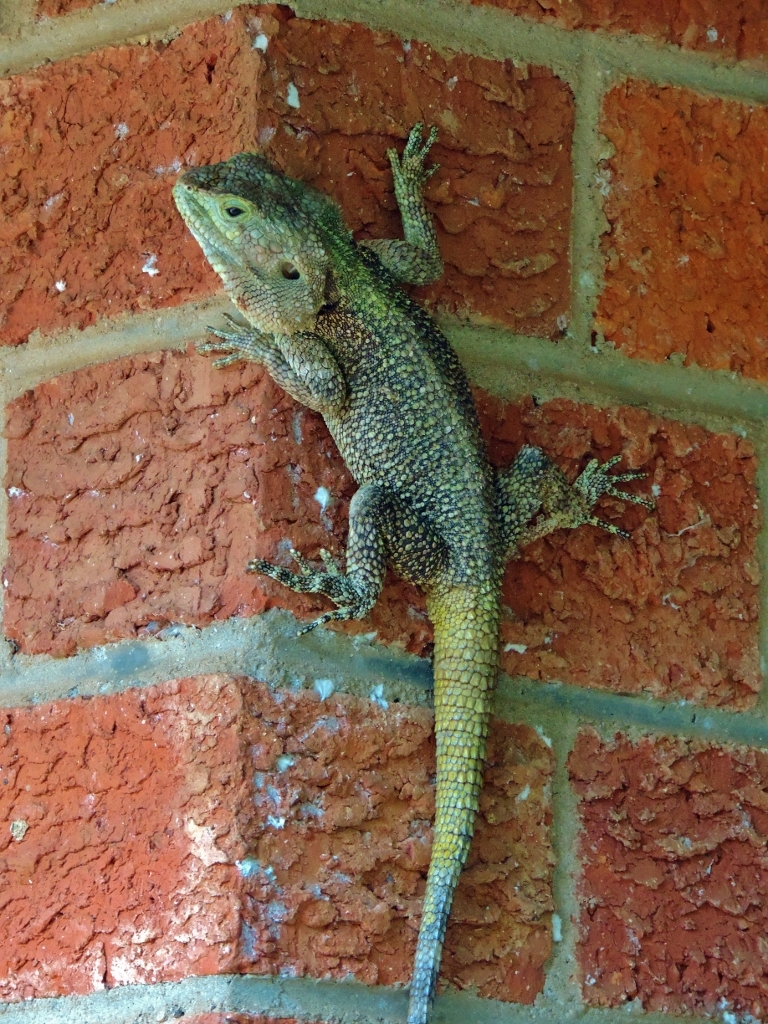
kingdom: Animalia
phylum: Chordata
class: Squamata
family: Agamidae
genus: Acanthocercus
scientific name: Acanthocercus atricollis
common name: Southern tree agama
